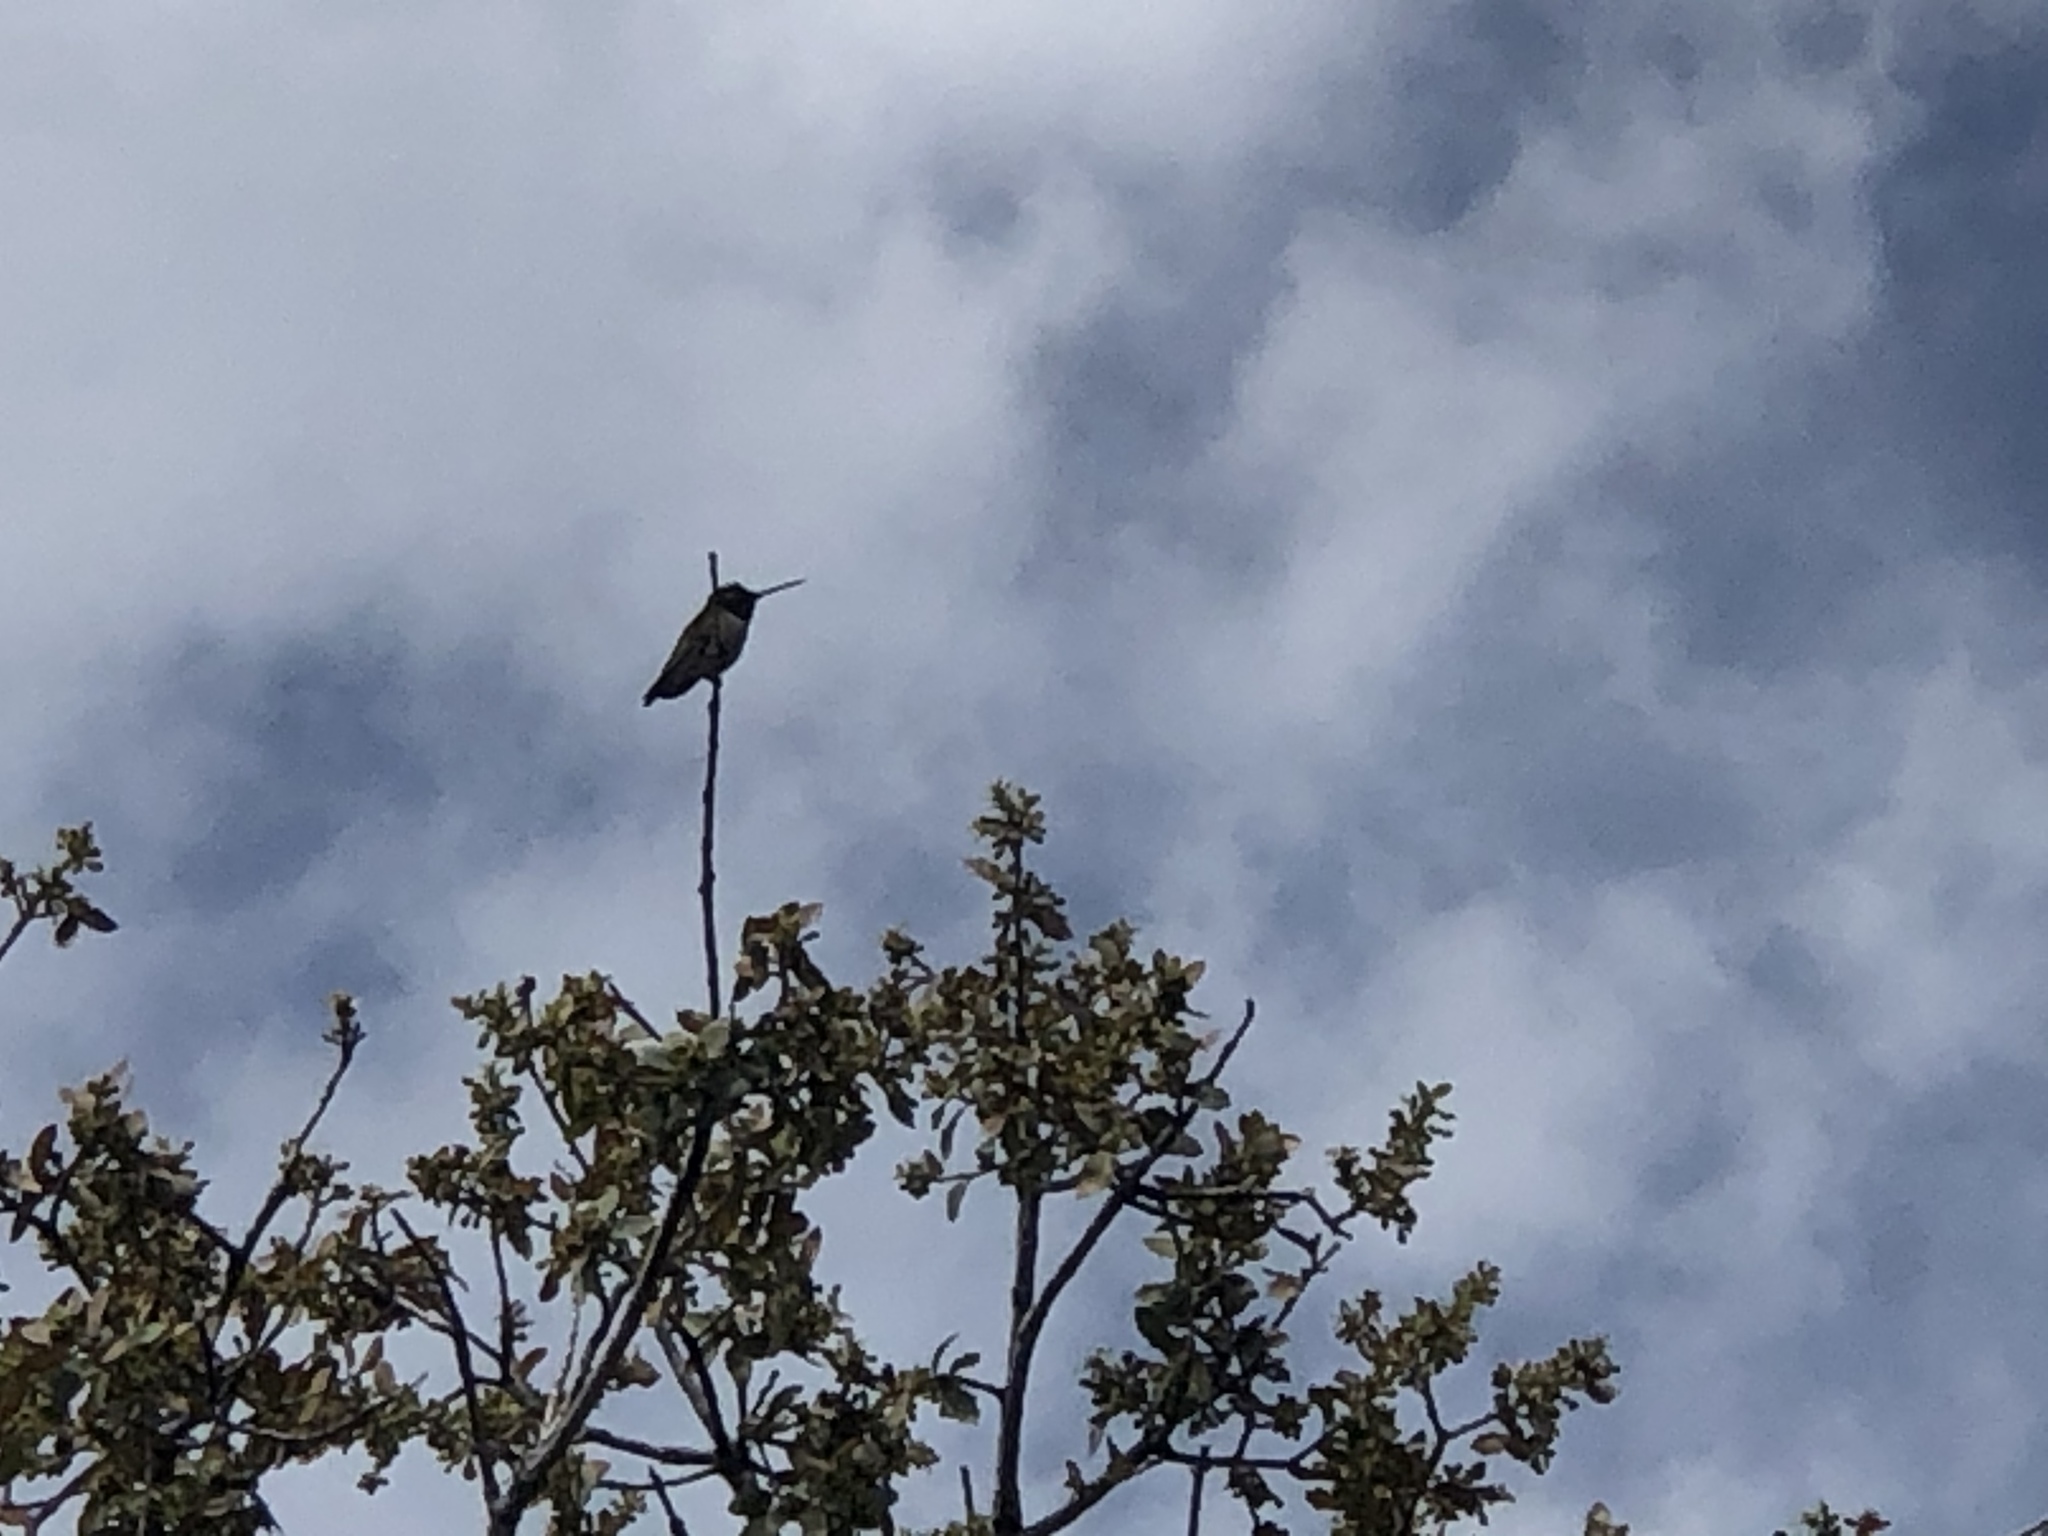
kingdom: Animalia
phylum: Chordata
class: Aves
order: Apodiformes
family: Trochilidae
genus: Archilochus
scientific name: Archilochus alexandri
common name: Black-chinned hummingbird
